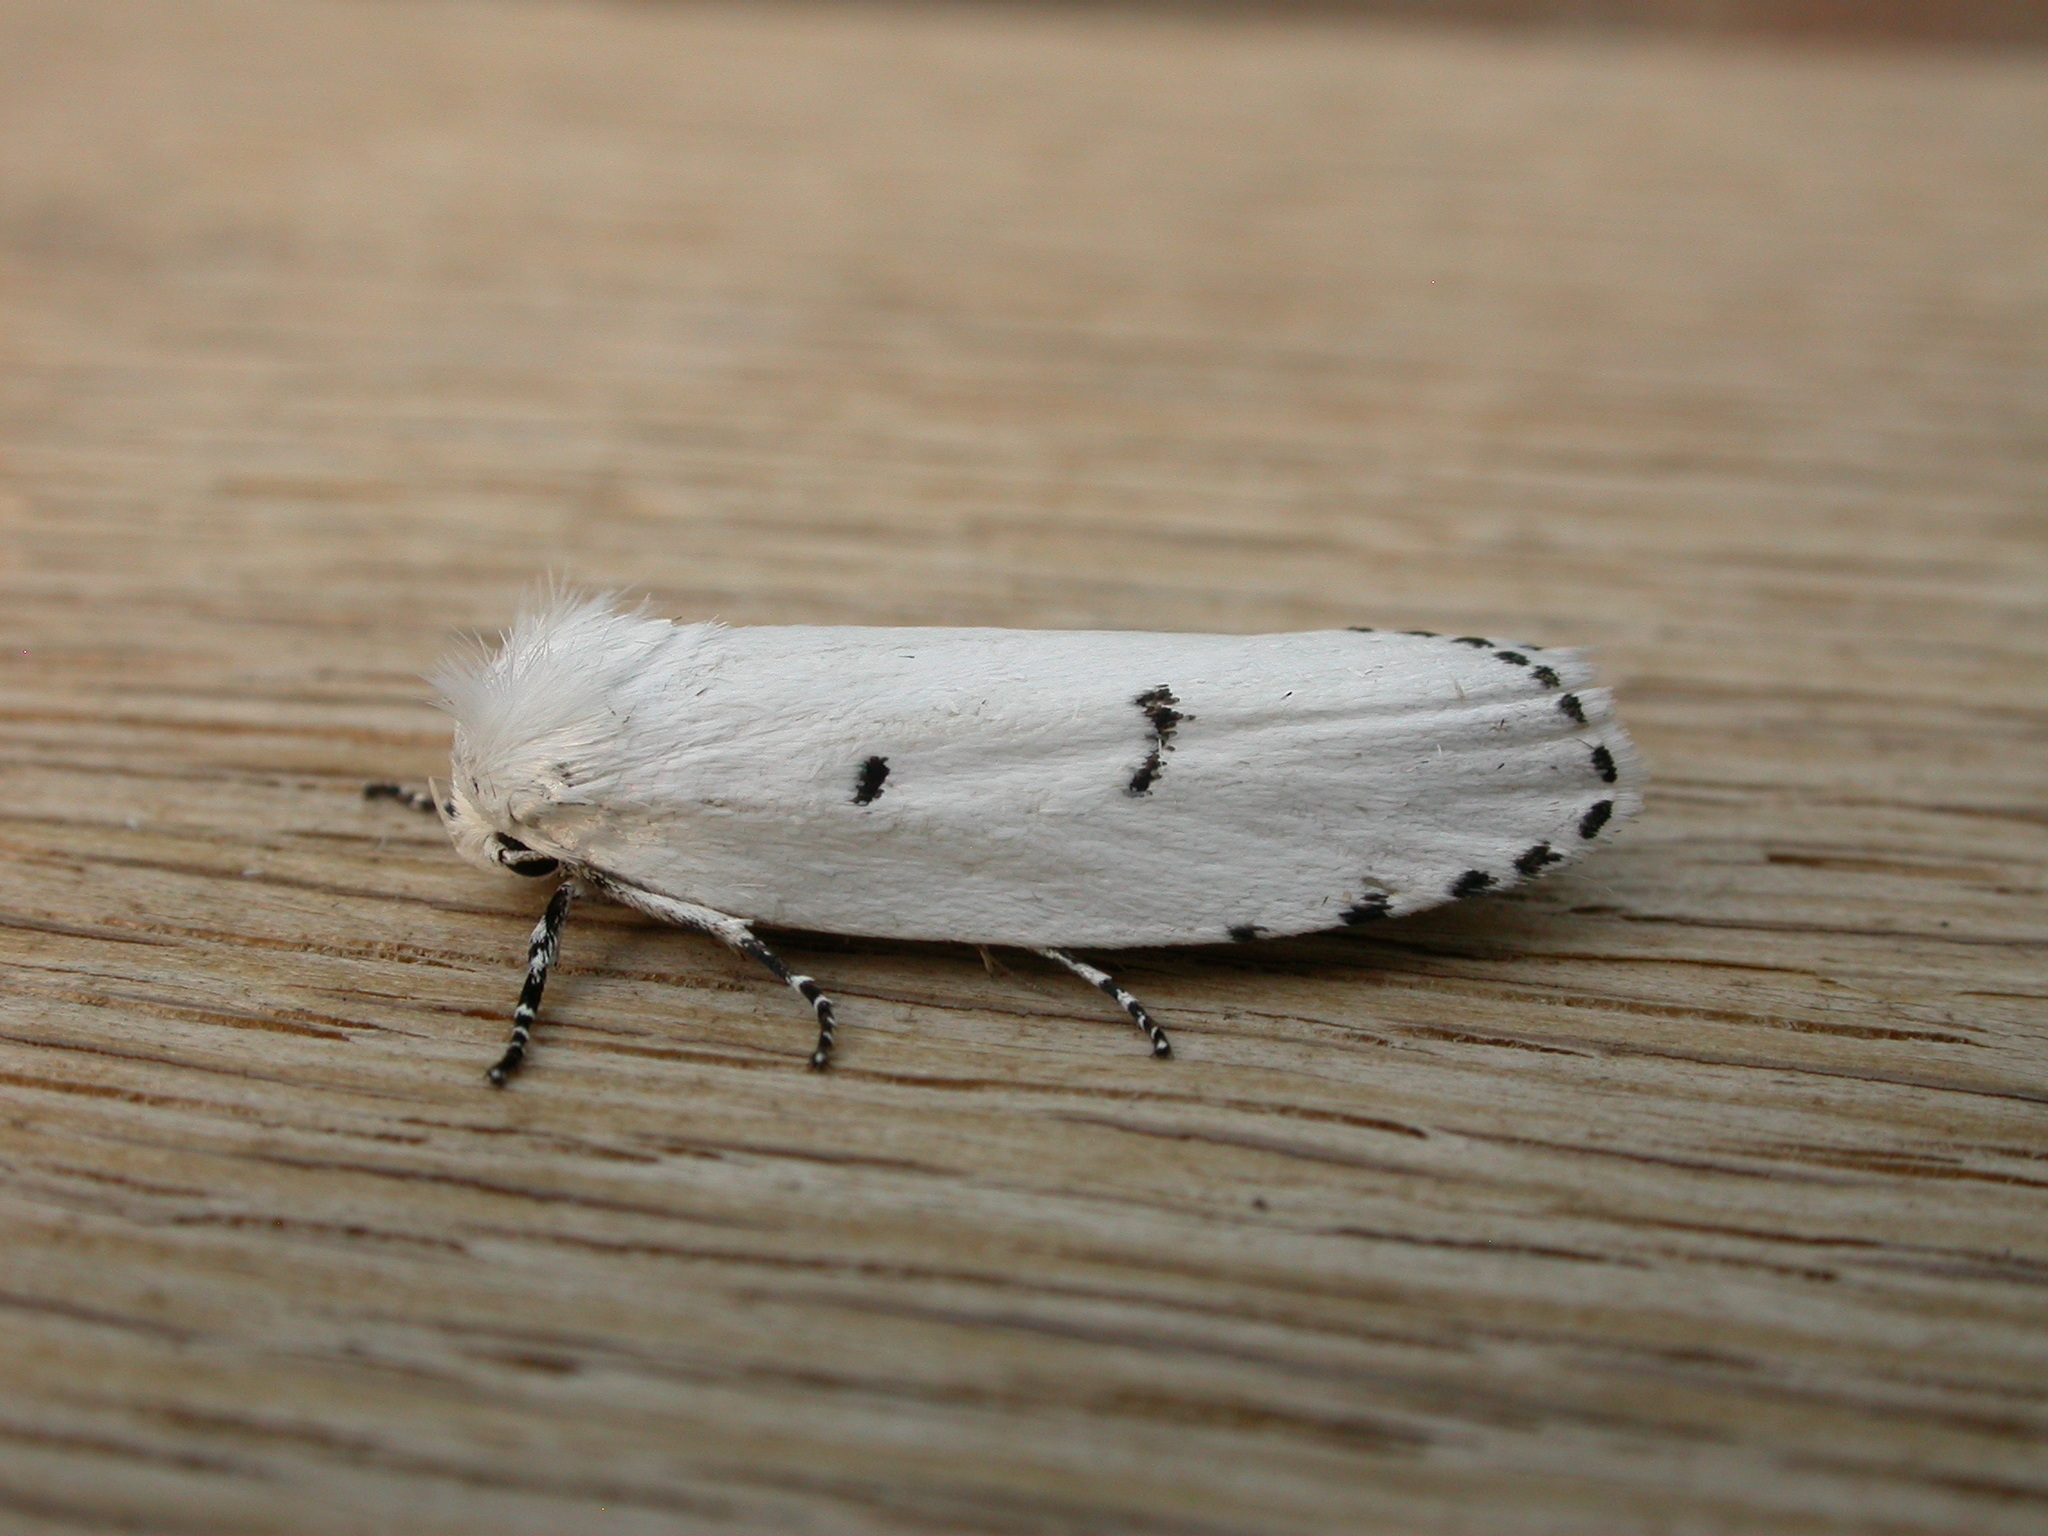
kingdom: Animalia
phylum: Arthropoda
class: Insecta
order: Lepidoptera
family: Xyloryctidae
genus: Cryptophasa
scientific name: Cryptophasa pultenae
